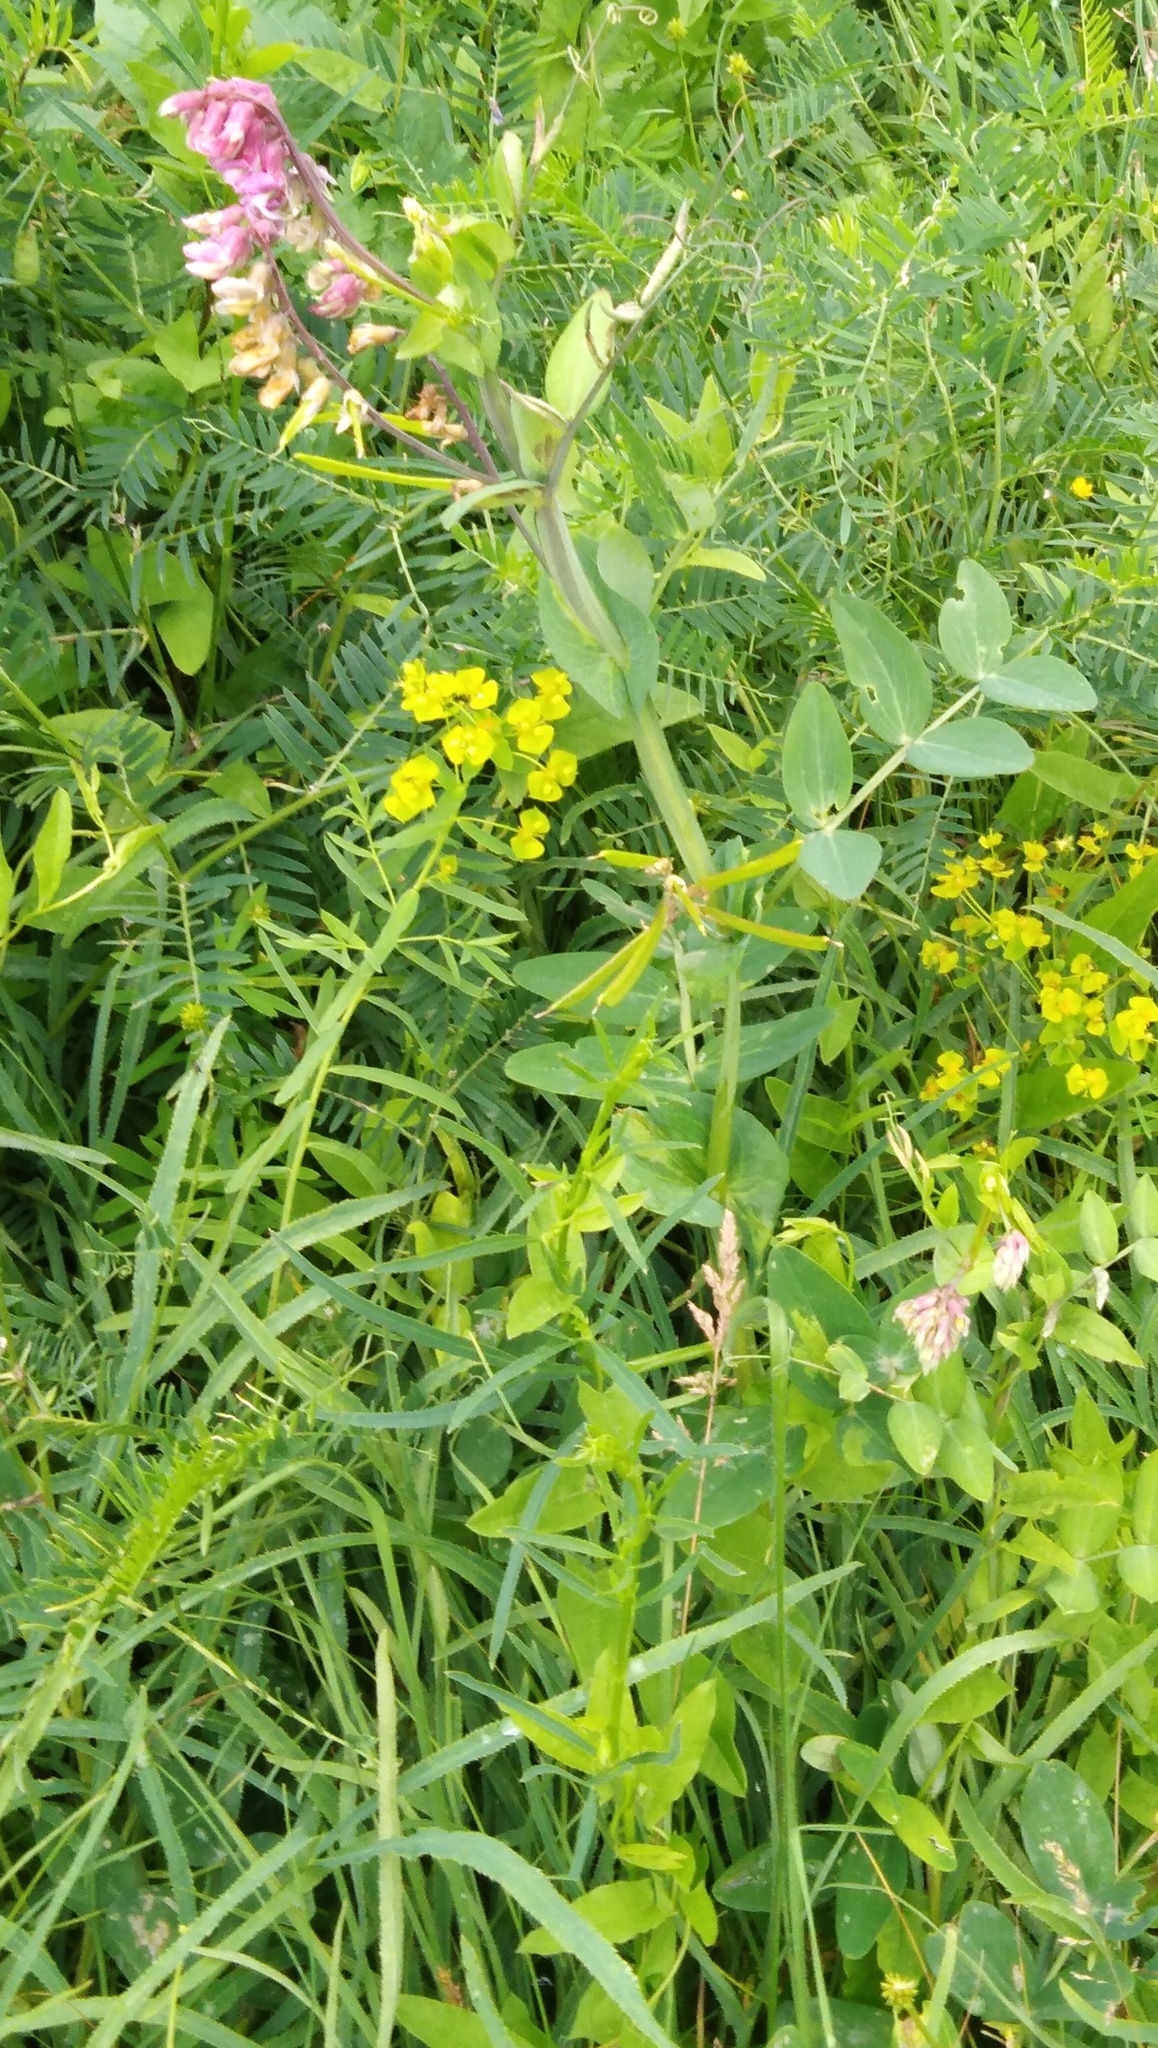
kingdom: Plantae
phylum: Tracheophyta
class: Magnoliopsida
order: Fabales
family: Fabaceae
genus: Lathyrus
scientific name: Lathyrus pisiformis
